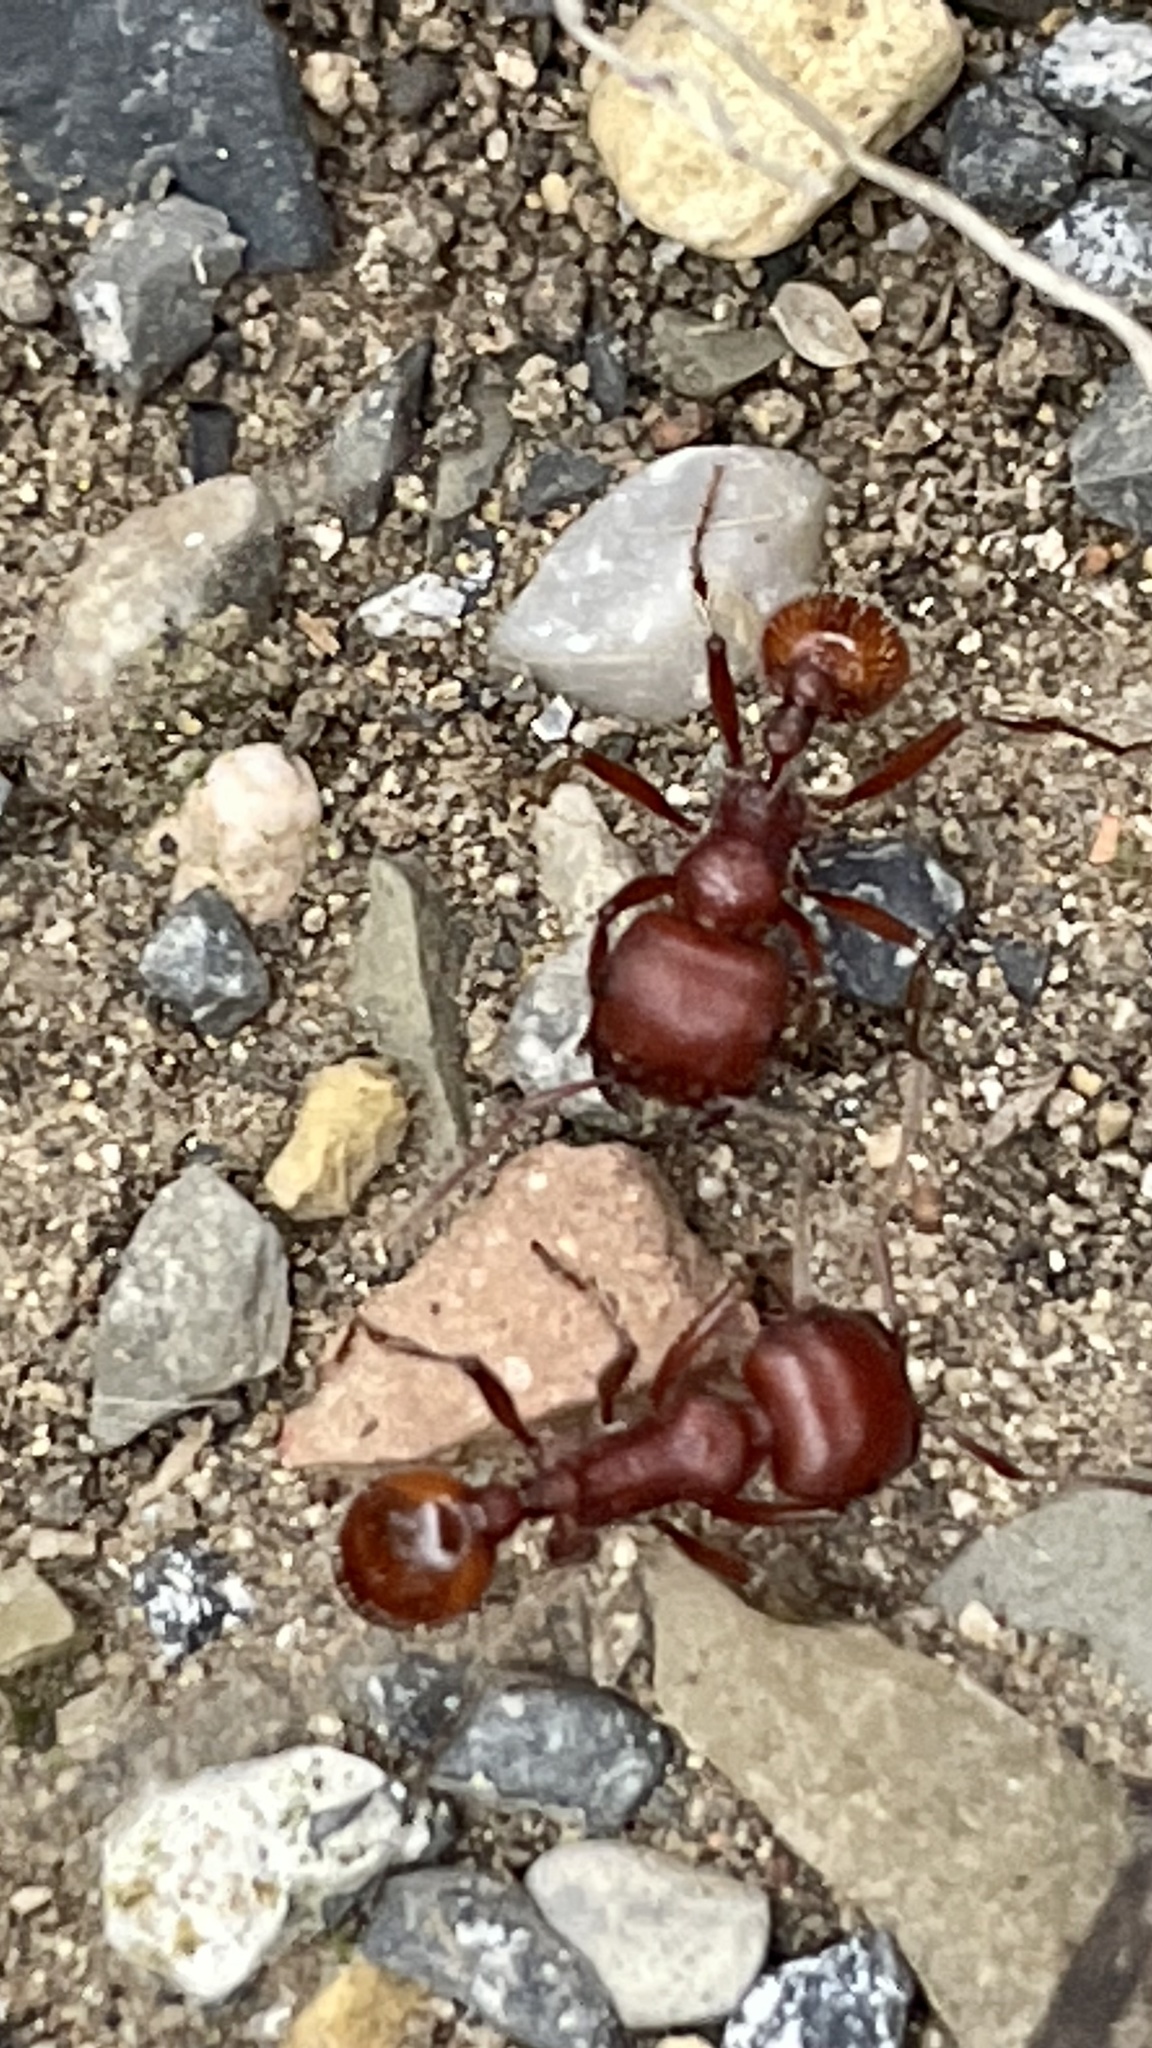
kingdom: Animalia
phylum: Arthropoda
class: Insecta
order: Hymenoptera
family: Formicidae
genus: Pogonomyrmex
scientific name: Pogonomyrmex barbatus
